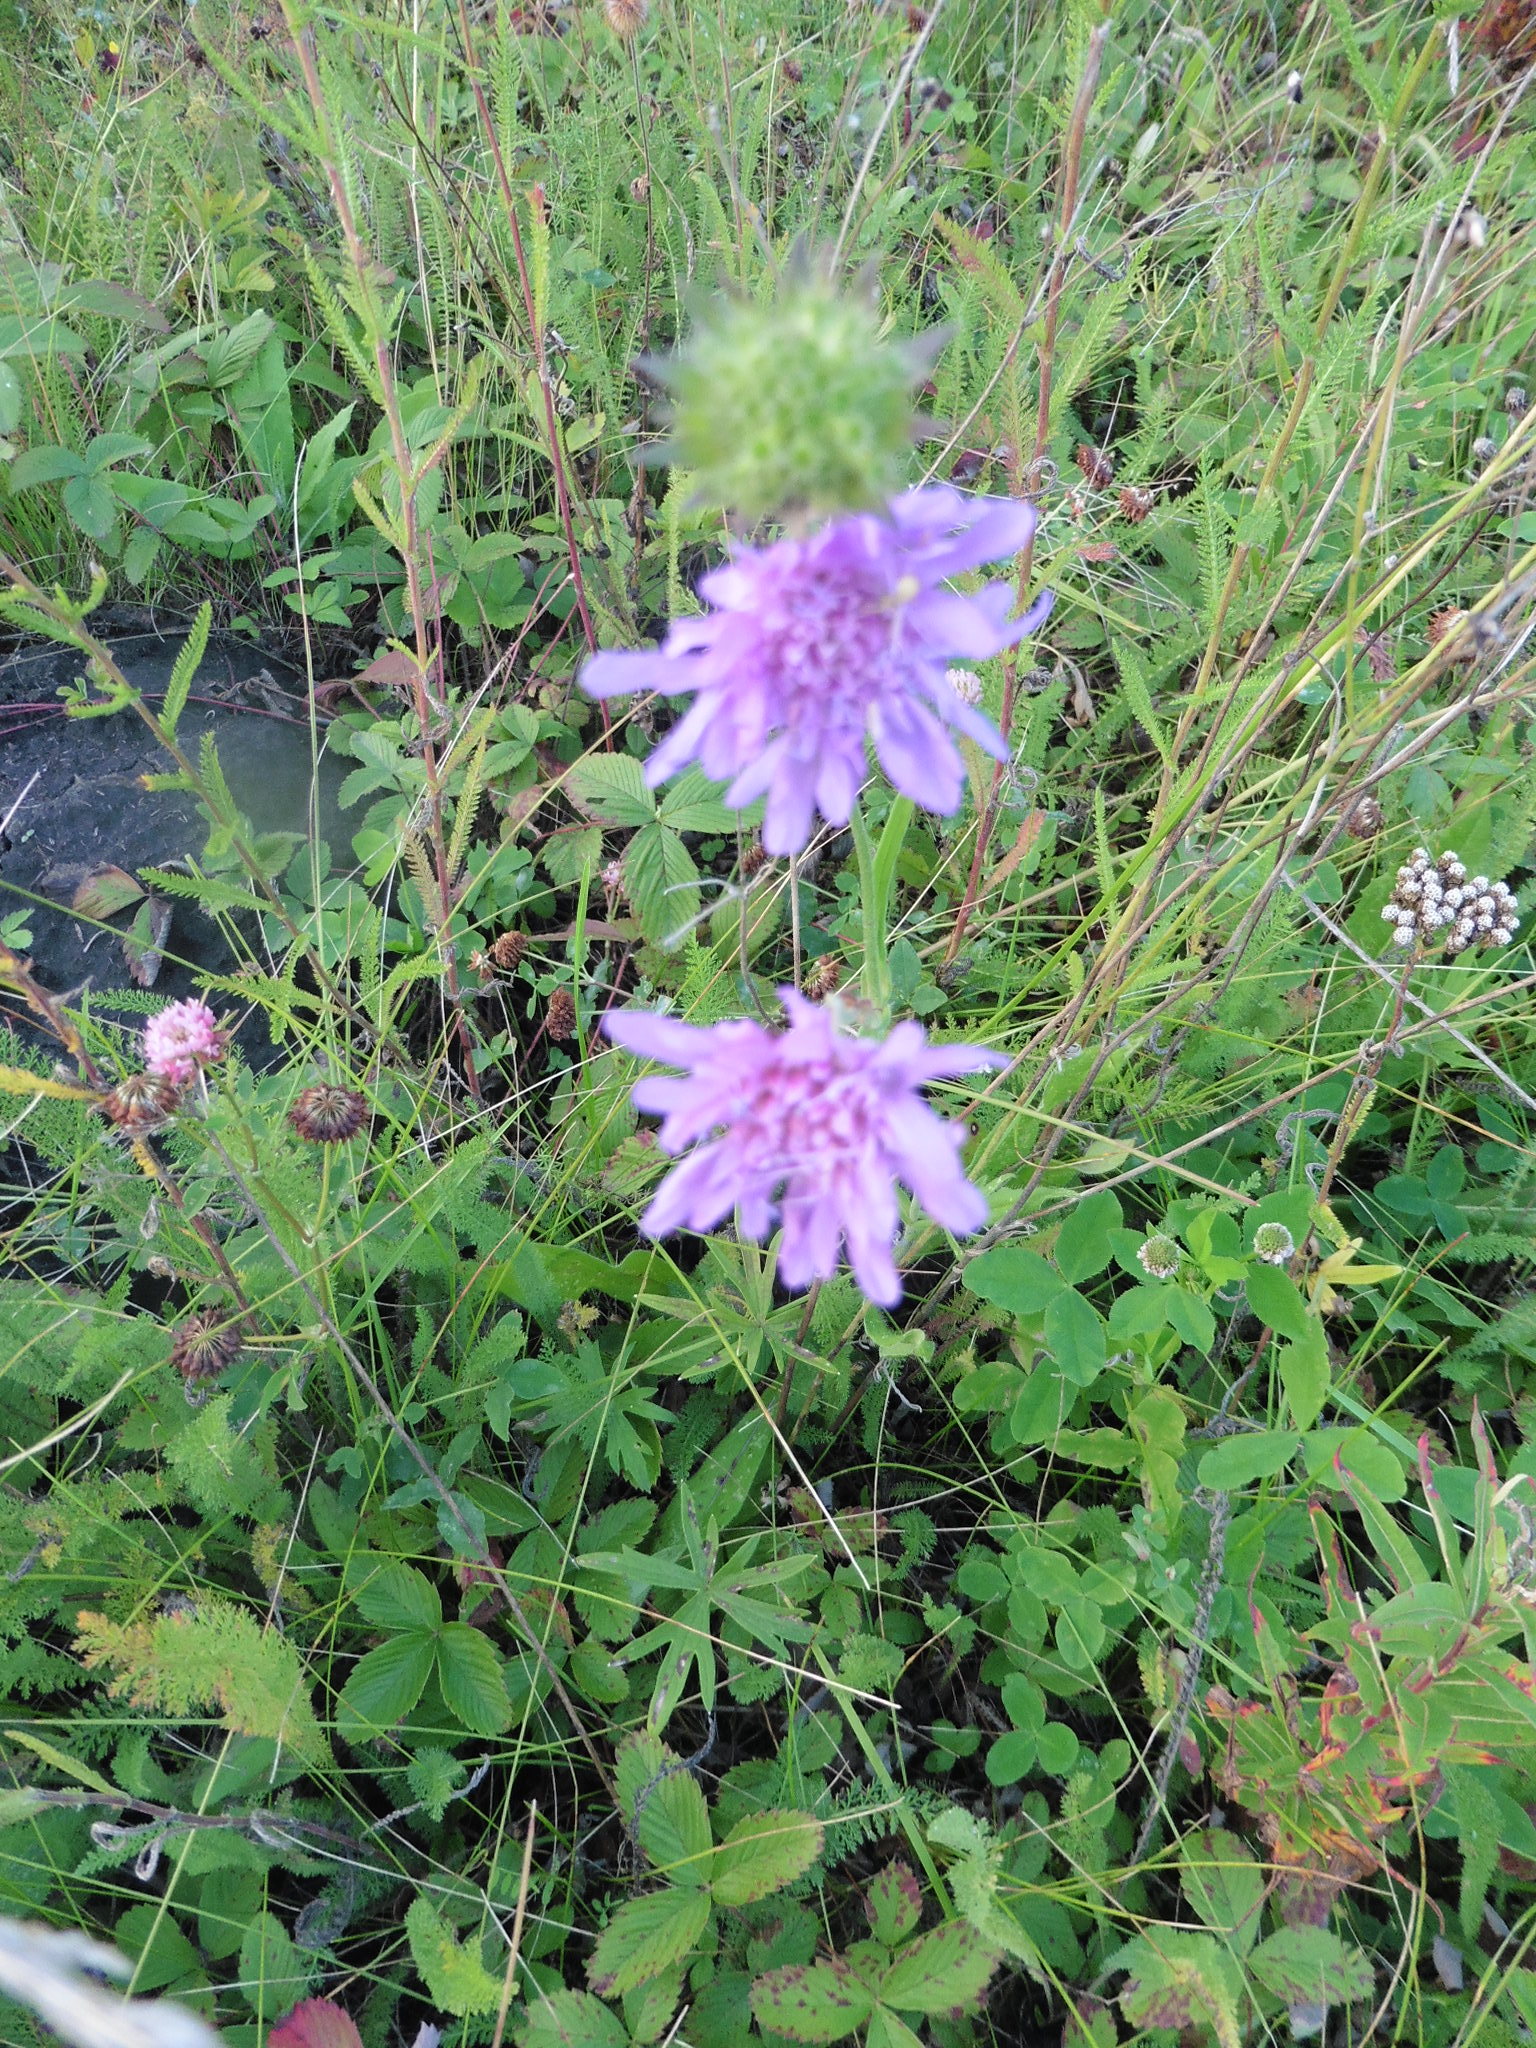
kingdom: Plantae
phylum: Tracheophyta
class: Magnoliopsida
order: Dipsacales
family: Caprifoliaceae
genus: Knautia
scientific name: Knautia arvensis
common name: Field scabiosa
